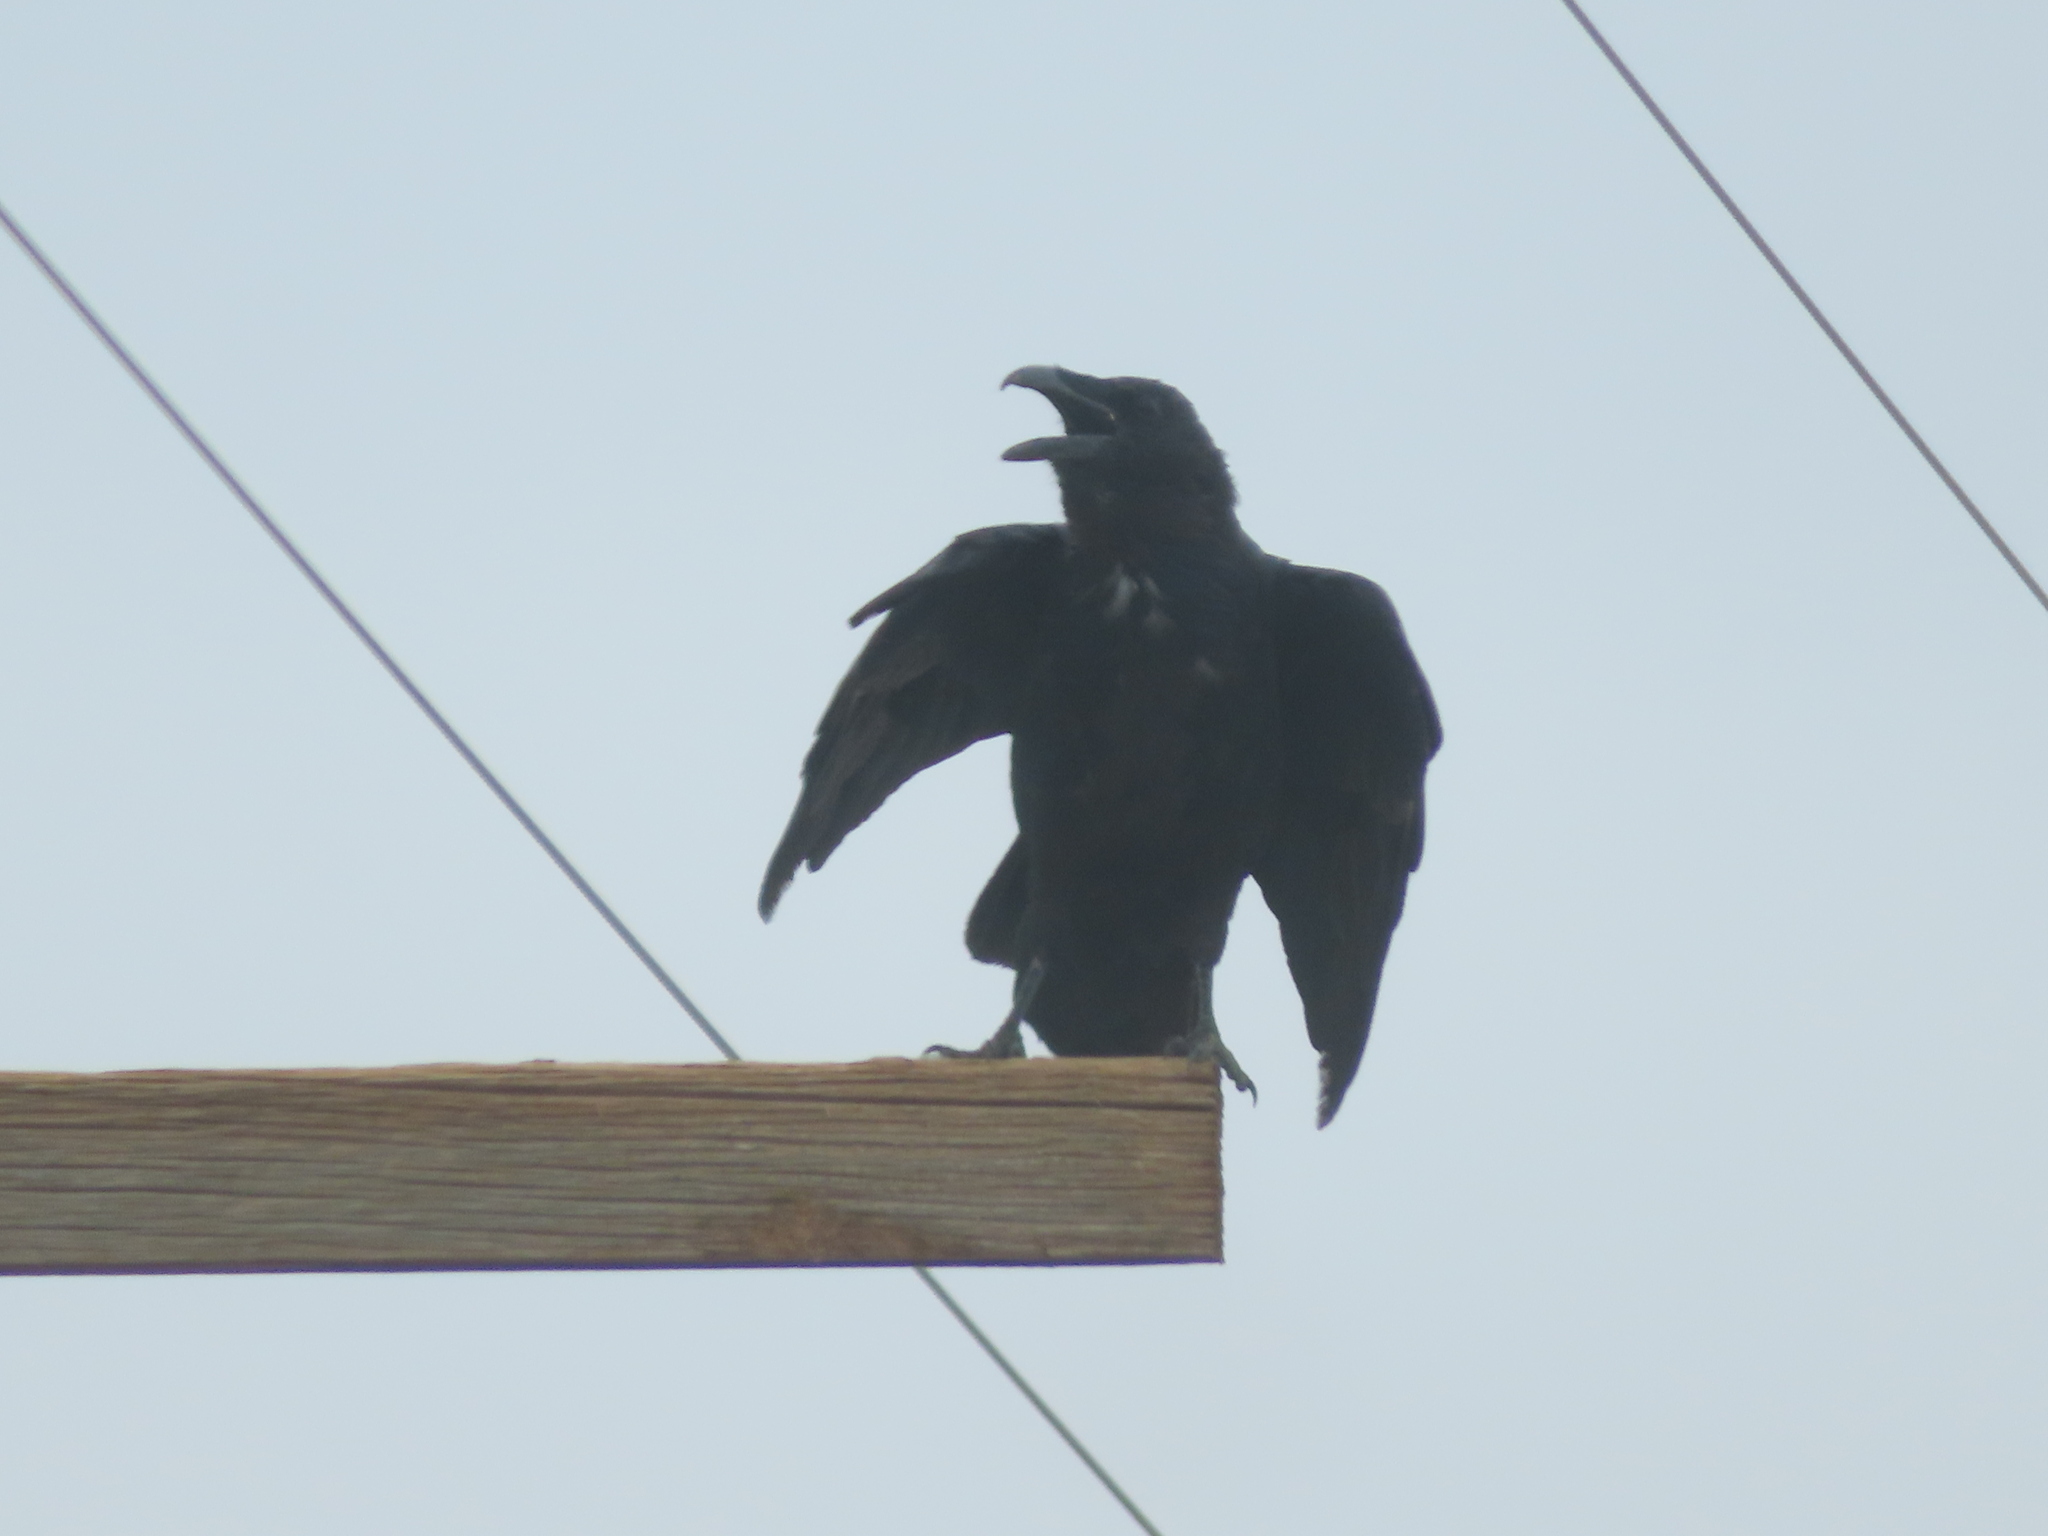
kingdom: Animalia
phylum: Chordata
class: Aves
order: Passeriformes
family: Corvidae
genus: Corvus
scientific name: Corvus corax
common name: Common raven
